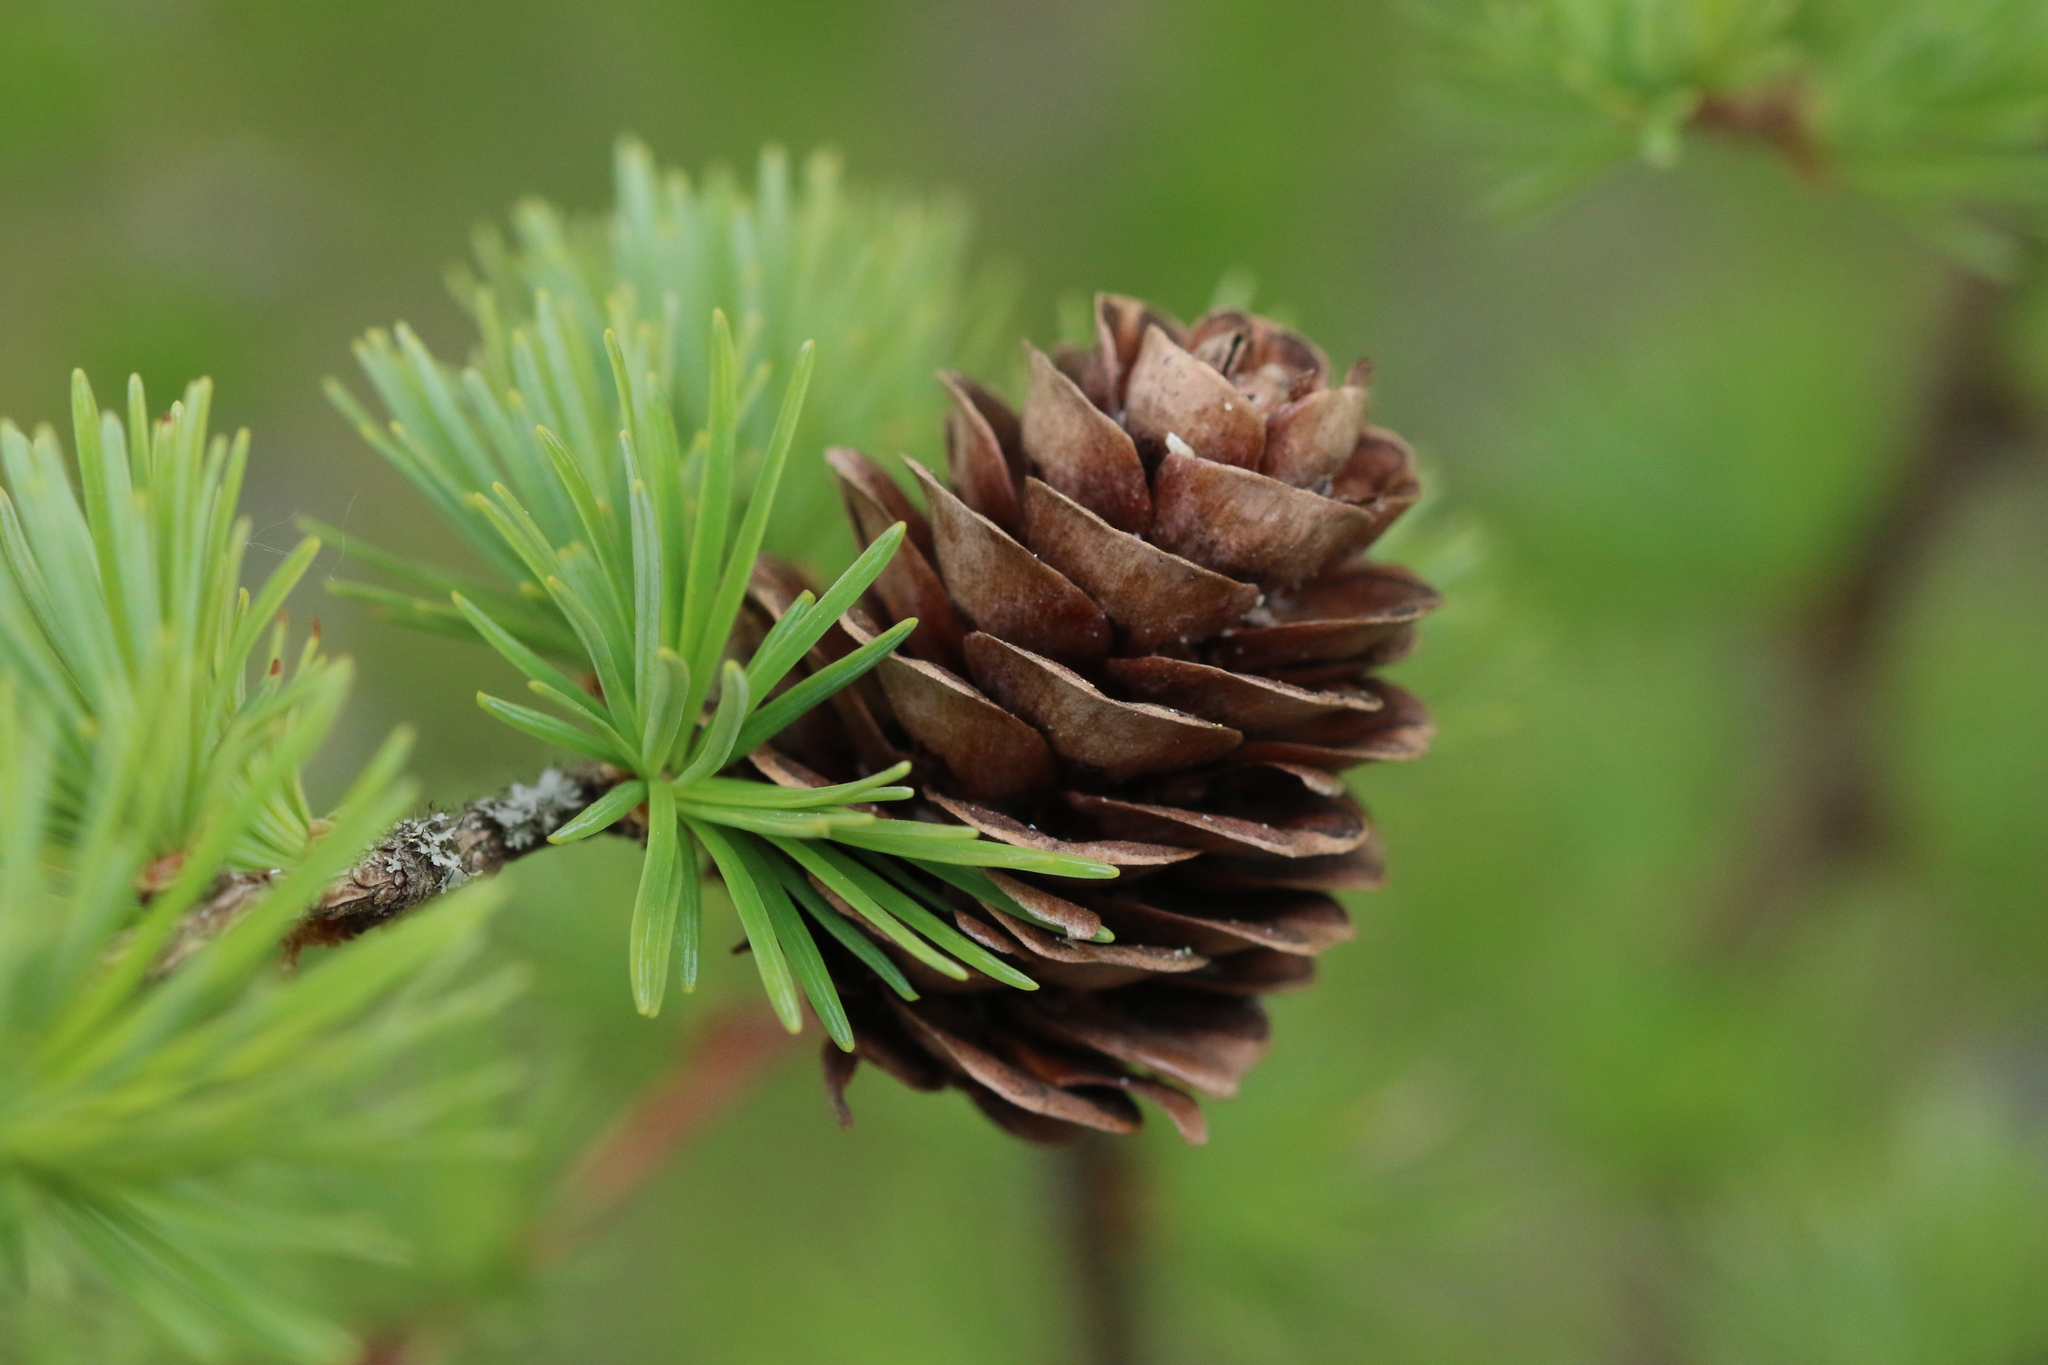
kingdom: Plantae
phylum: Tracheophyta
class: Pinopsida
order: Pinales
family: Pinaceae
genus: Larix
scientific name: Larix decidua
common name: European larch
